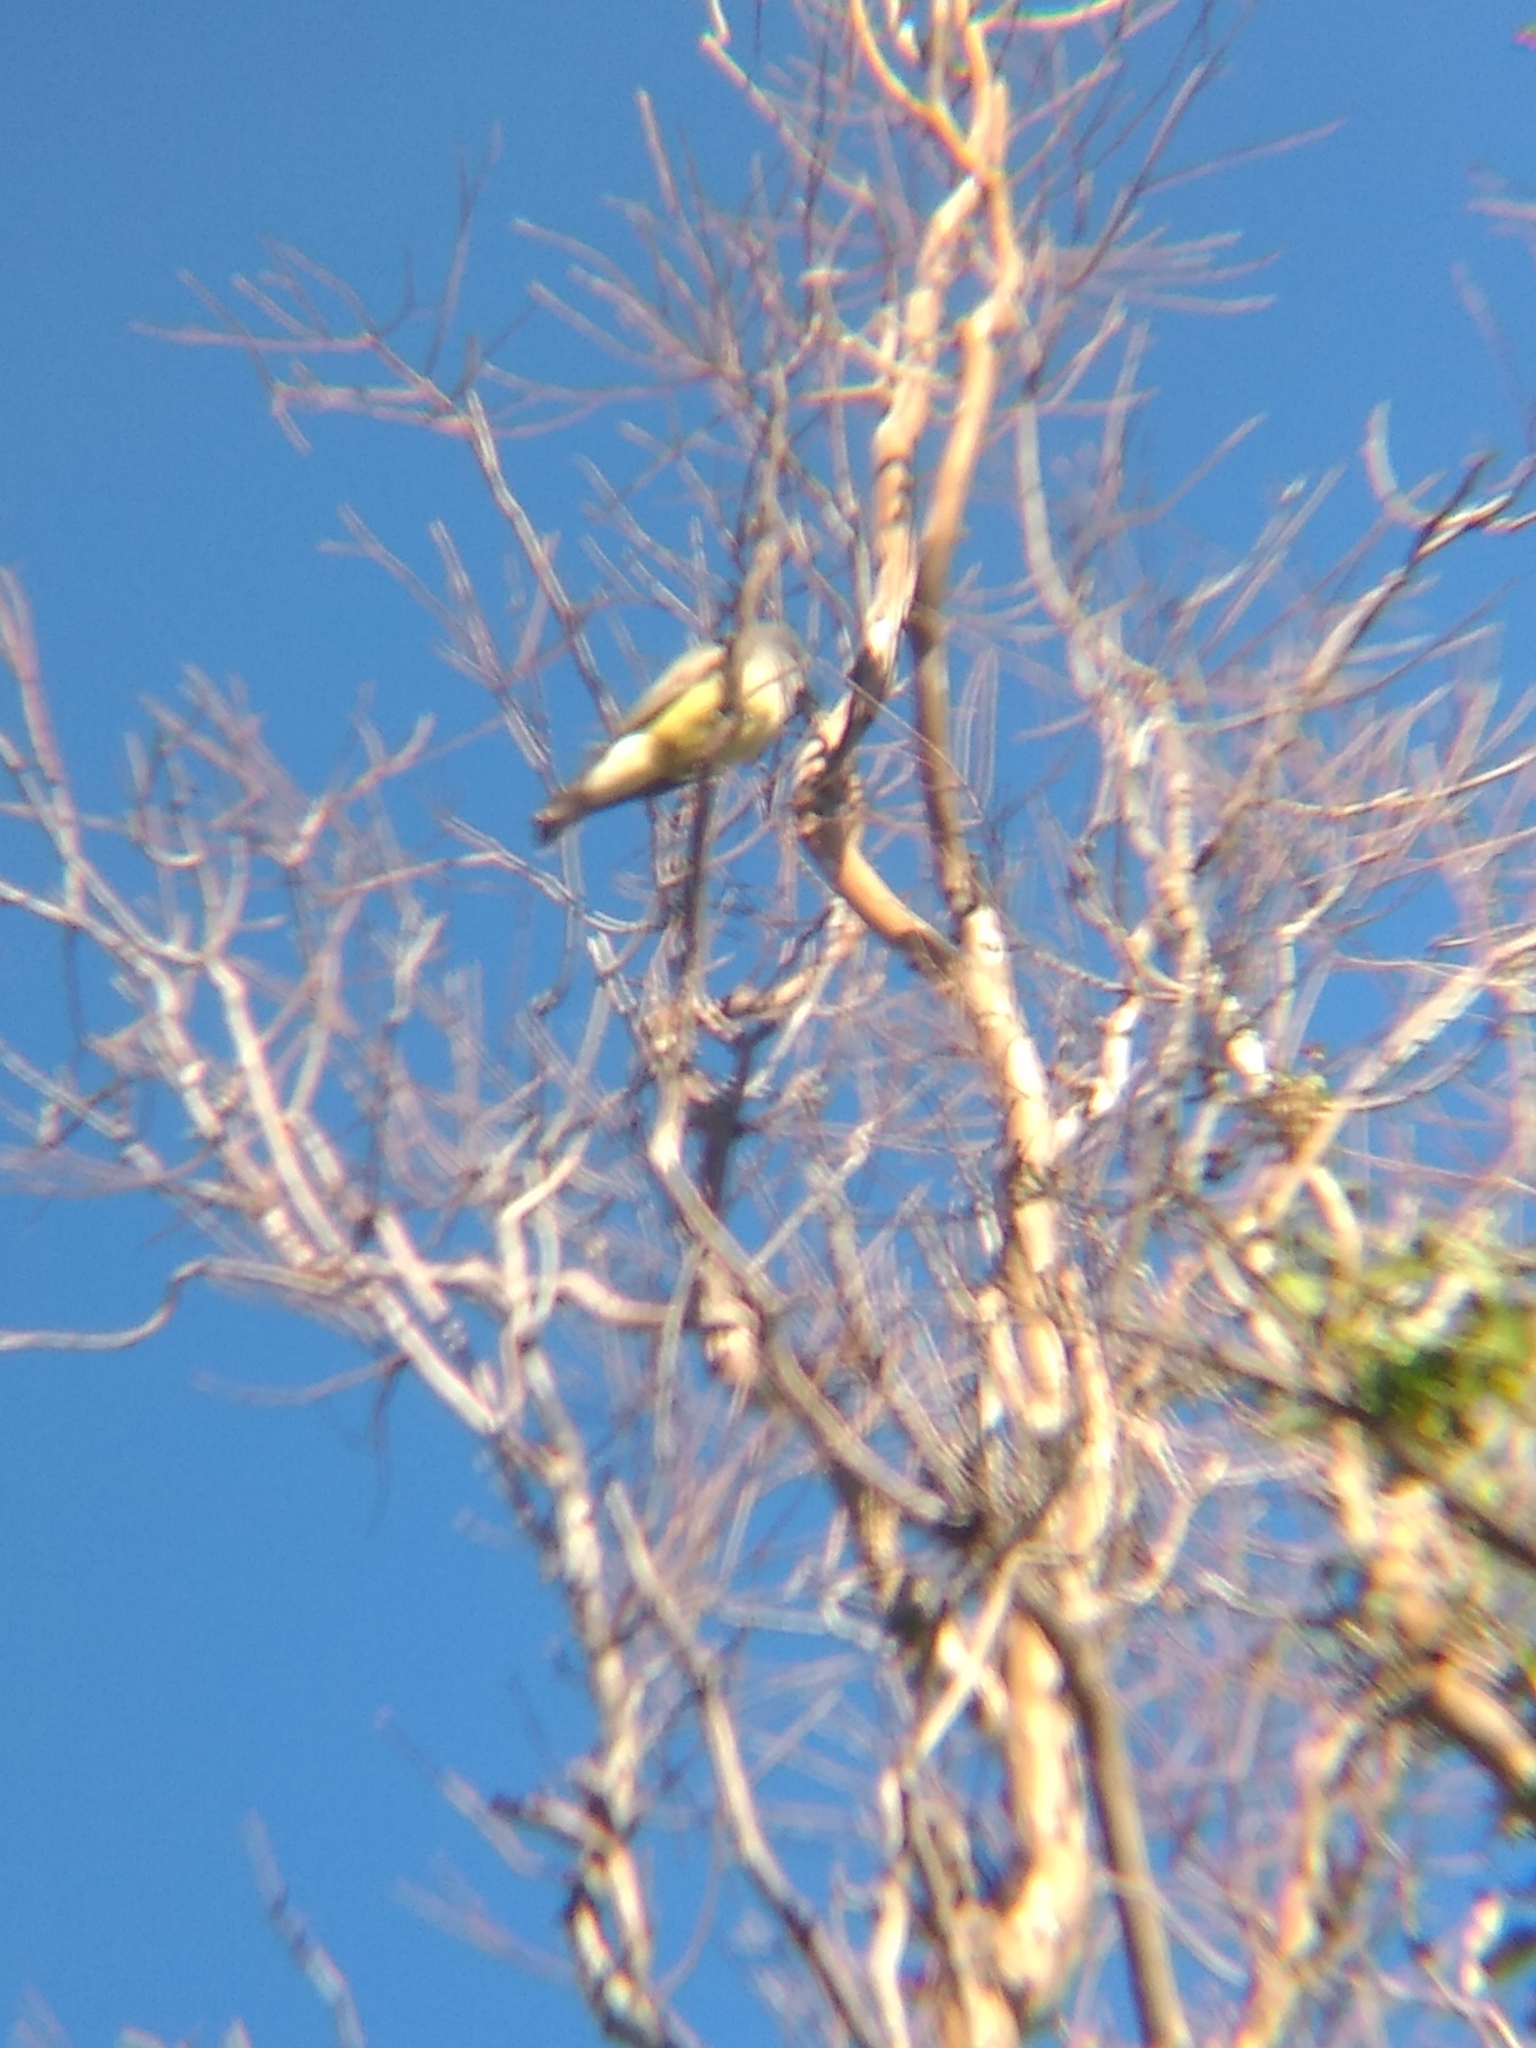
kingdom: Animalia
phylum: Chordata
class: Aves
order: Passeriformes
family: Tyrannidae
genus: Tyrannus
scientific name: Tyrannus vociferans
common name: Cassin's kingbird
